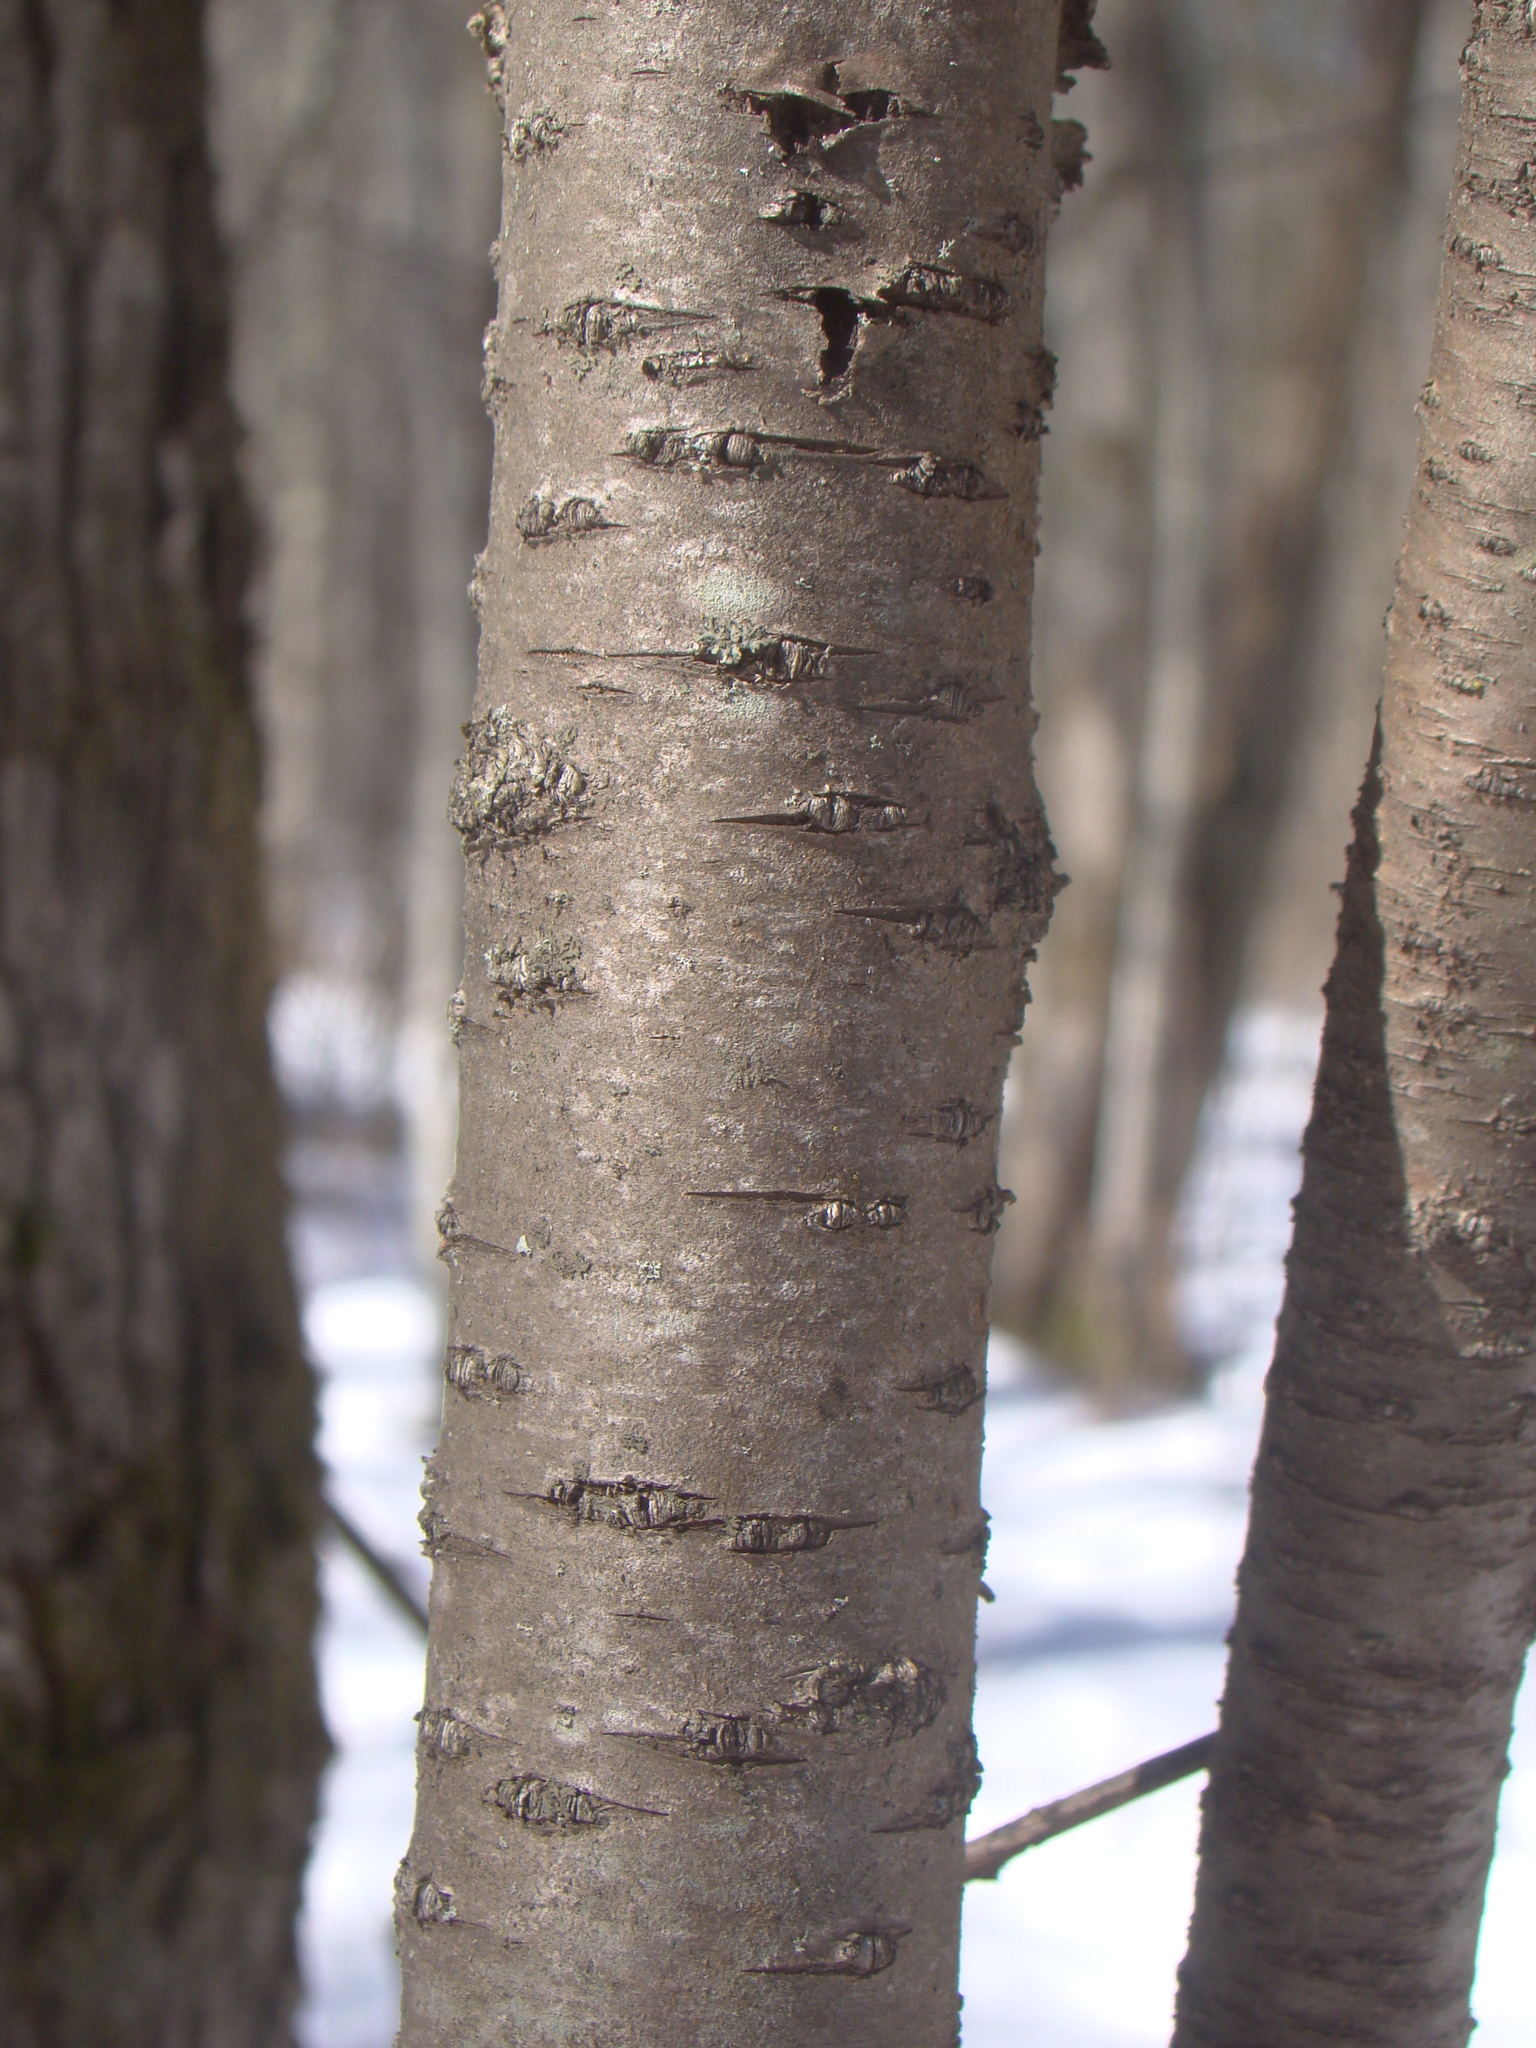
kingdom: Plantae
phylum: Tracheophyta
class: Magnoliopsida
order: Rosales
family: Rhamnaceae
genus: Rhamnus
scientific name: Rhamnus cathartica
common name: Common buckthorn
